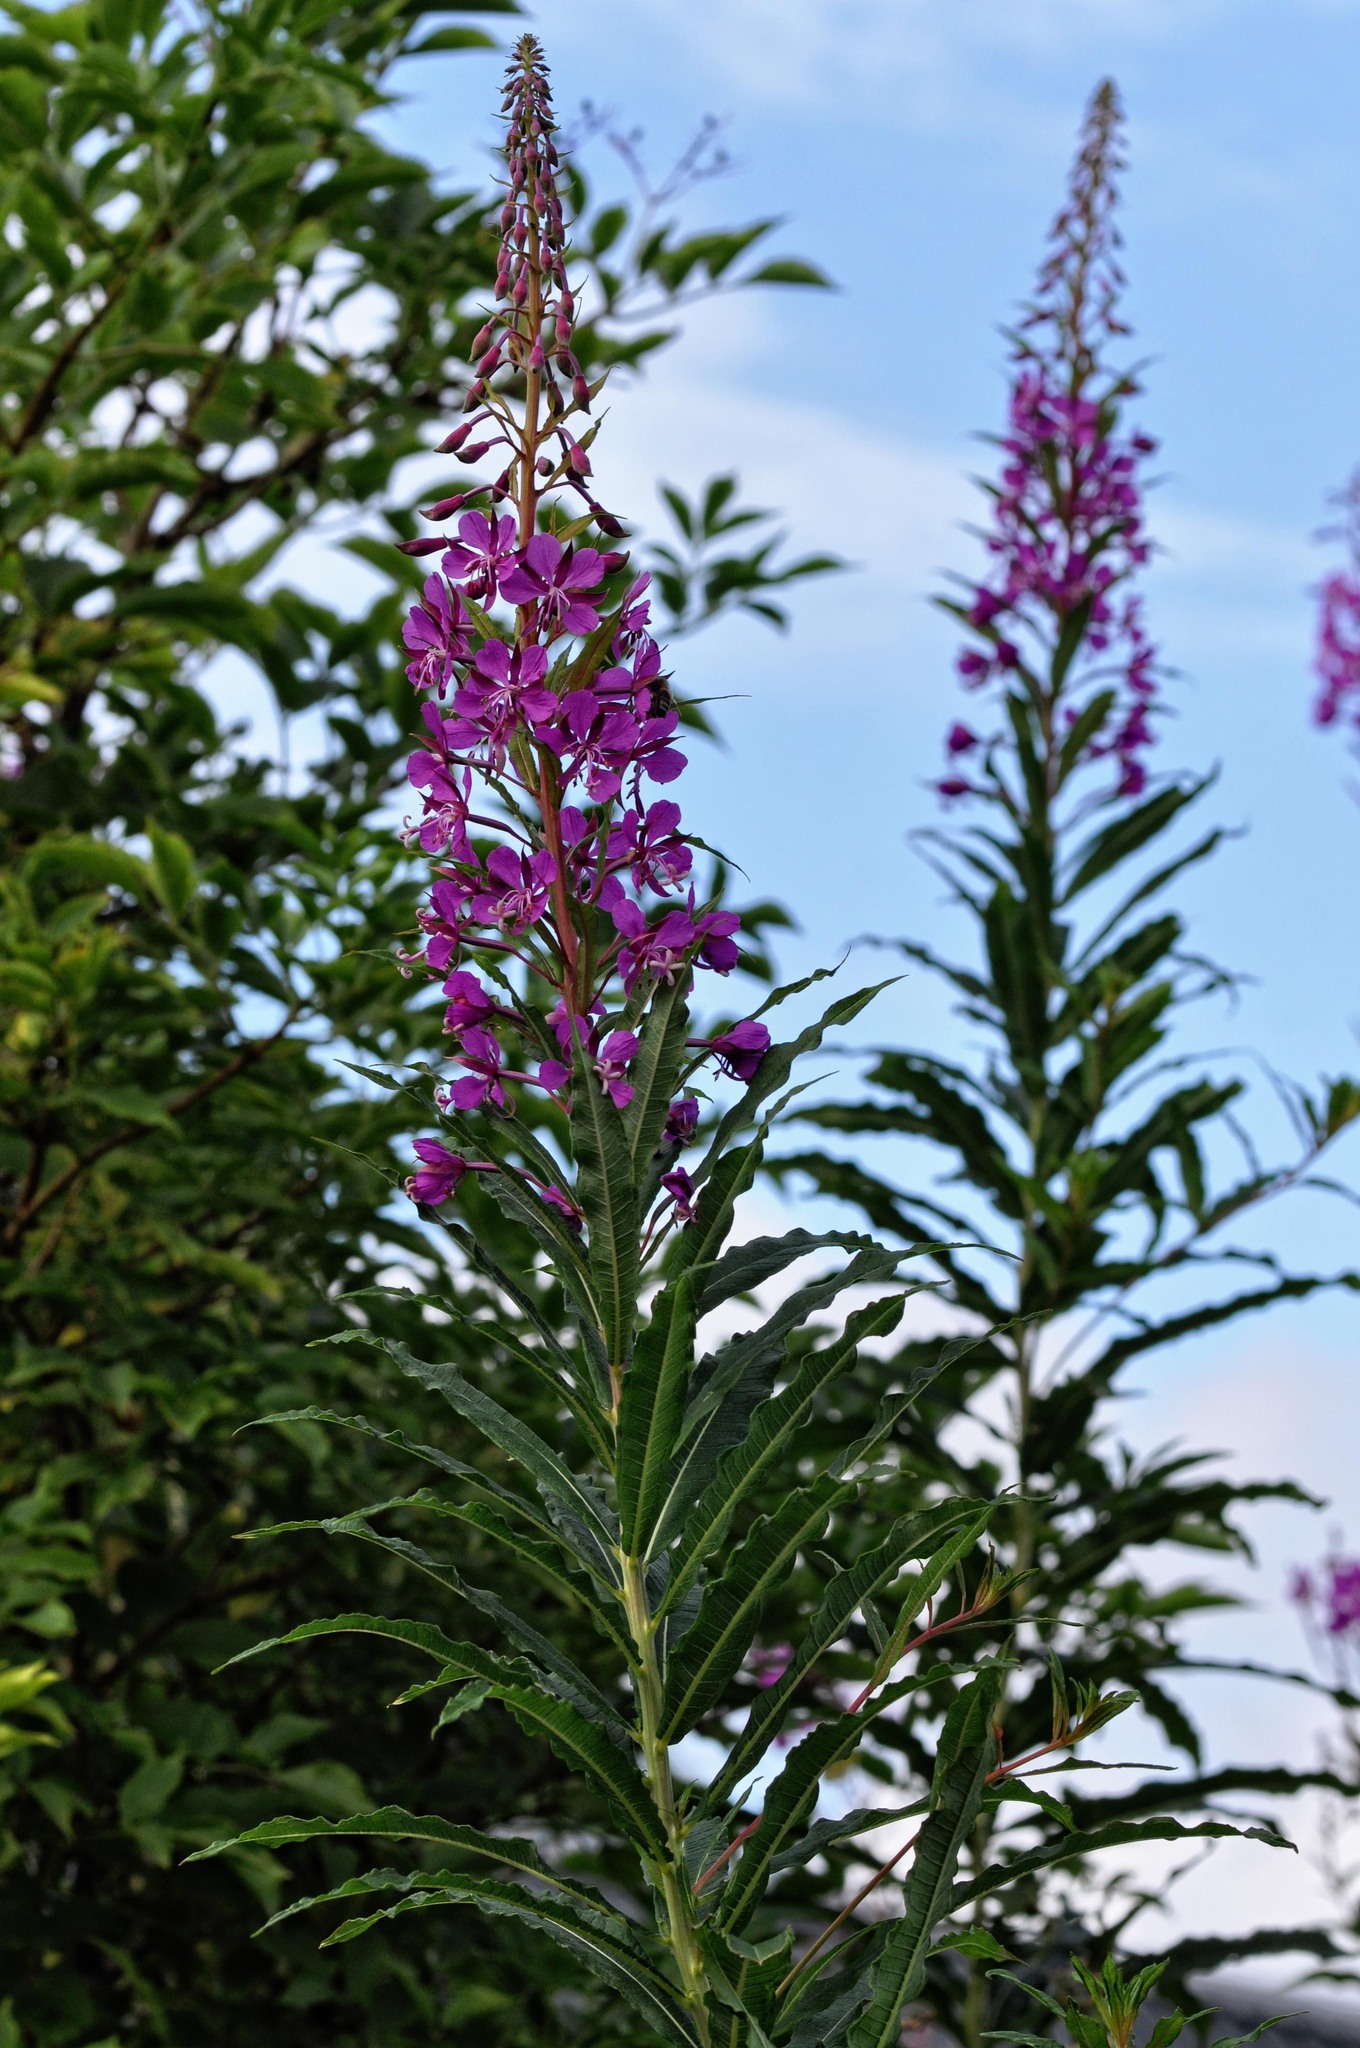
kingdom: Plantae
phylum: Tracheophyta
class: Magnoliopsida
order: Myrtales
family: Onagraceae
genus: Chamaenerion
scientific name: Chamaenerion angustifolium
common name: Fireweed
